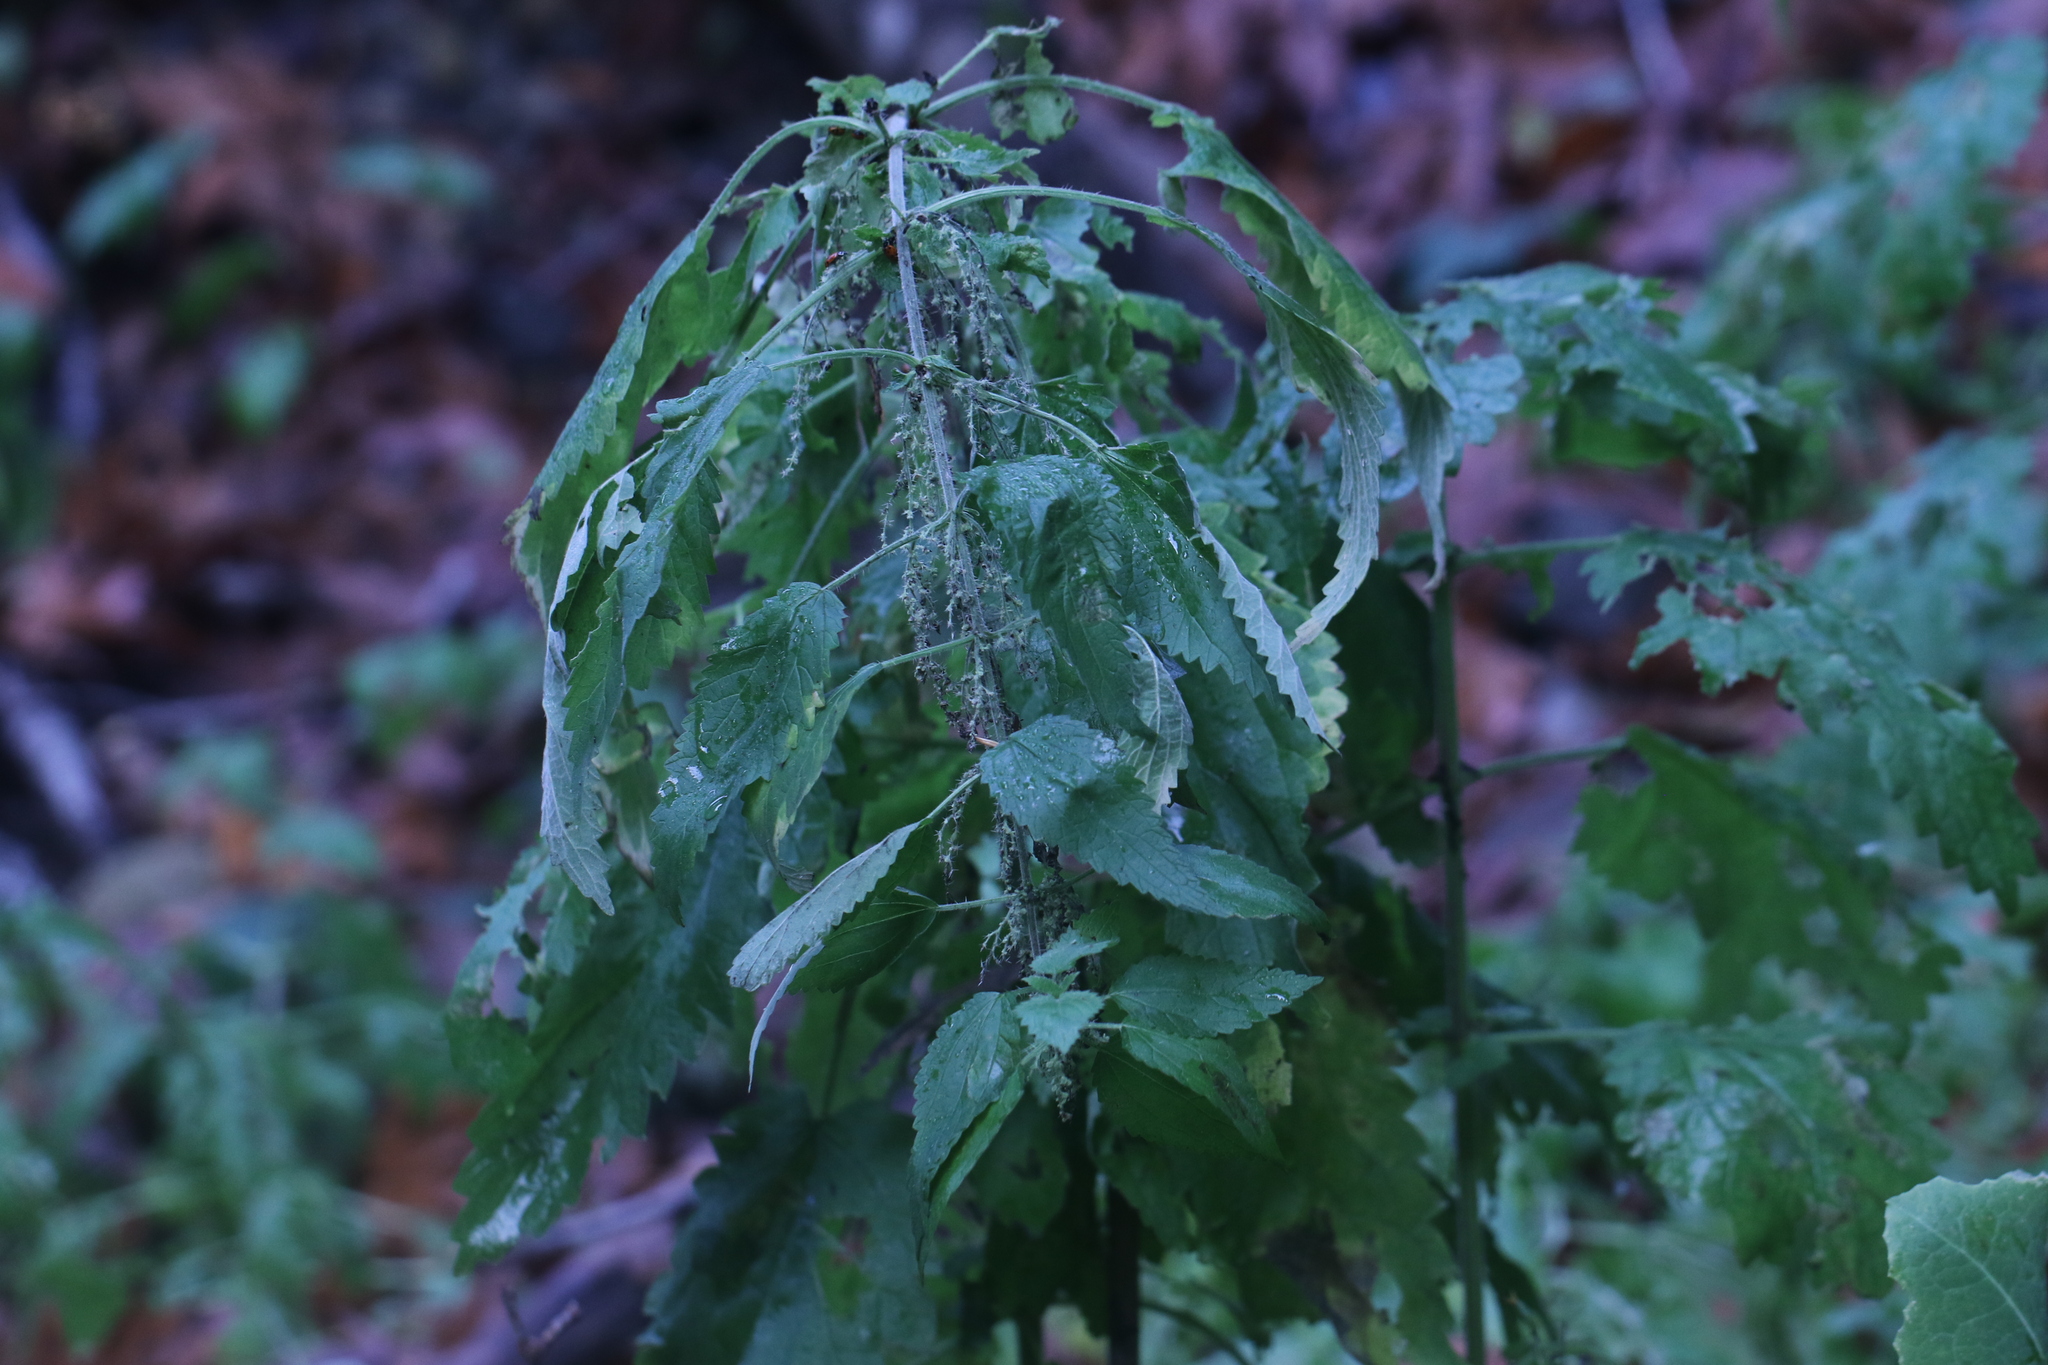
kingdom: Plantae
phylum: Tracheophyta
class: Magnoliopsida
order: Rosales
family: Urticaceae
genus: Urtica
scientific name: Urtica dioica
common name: Common nettle
